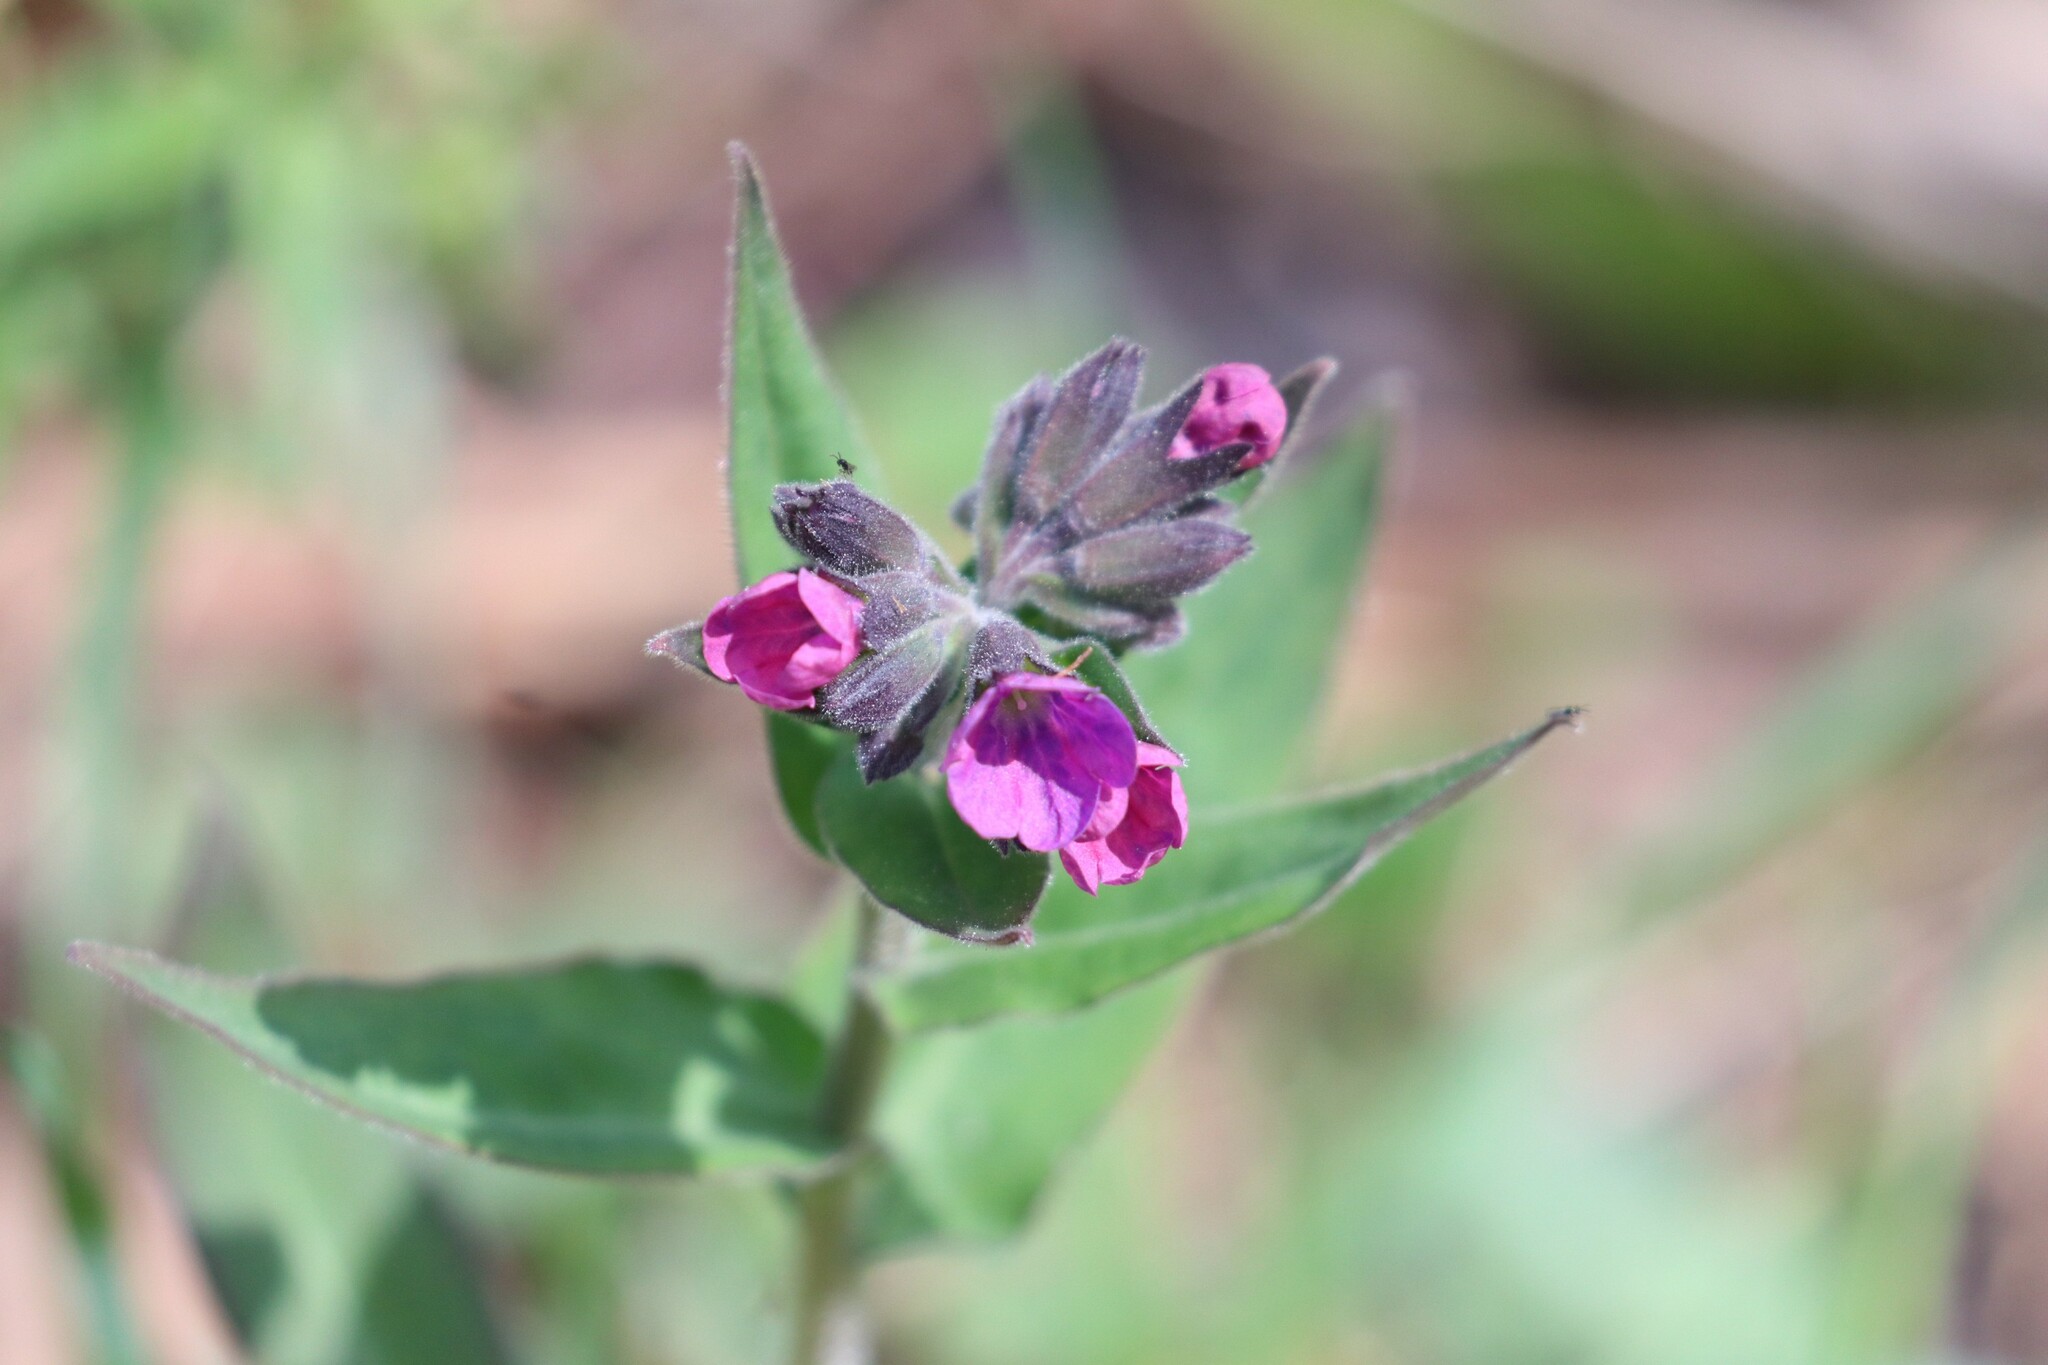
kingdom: Plantae
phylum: Tracheophyta
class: Magnoliopsida
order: Boraginales
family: Boraginaceae
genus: Pulmonaria
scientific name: Pulmonaria mollis
